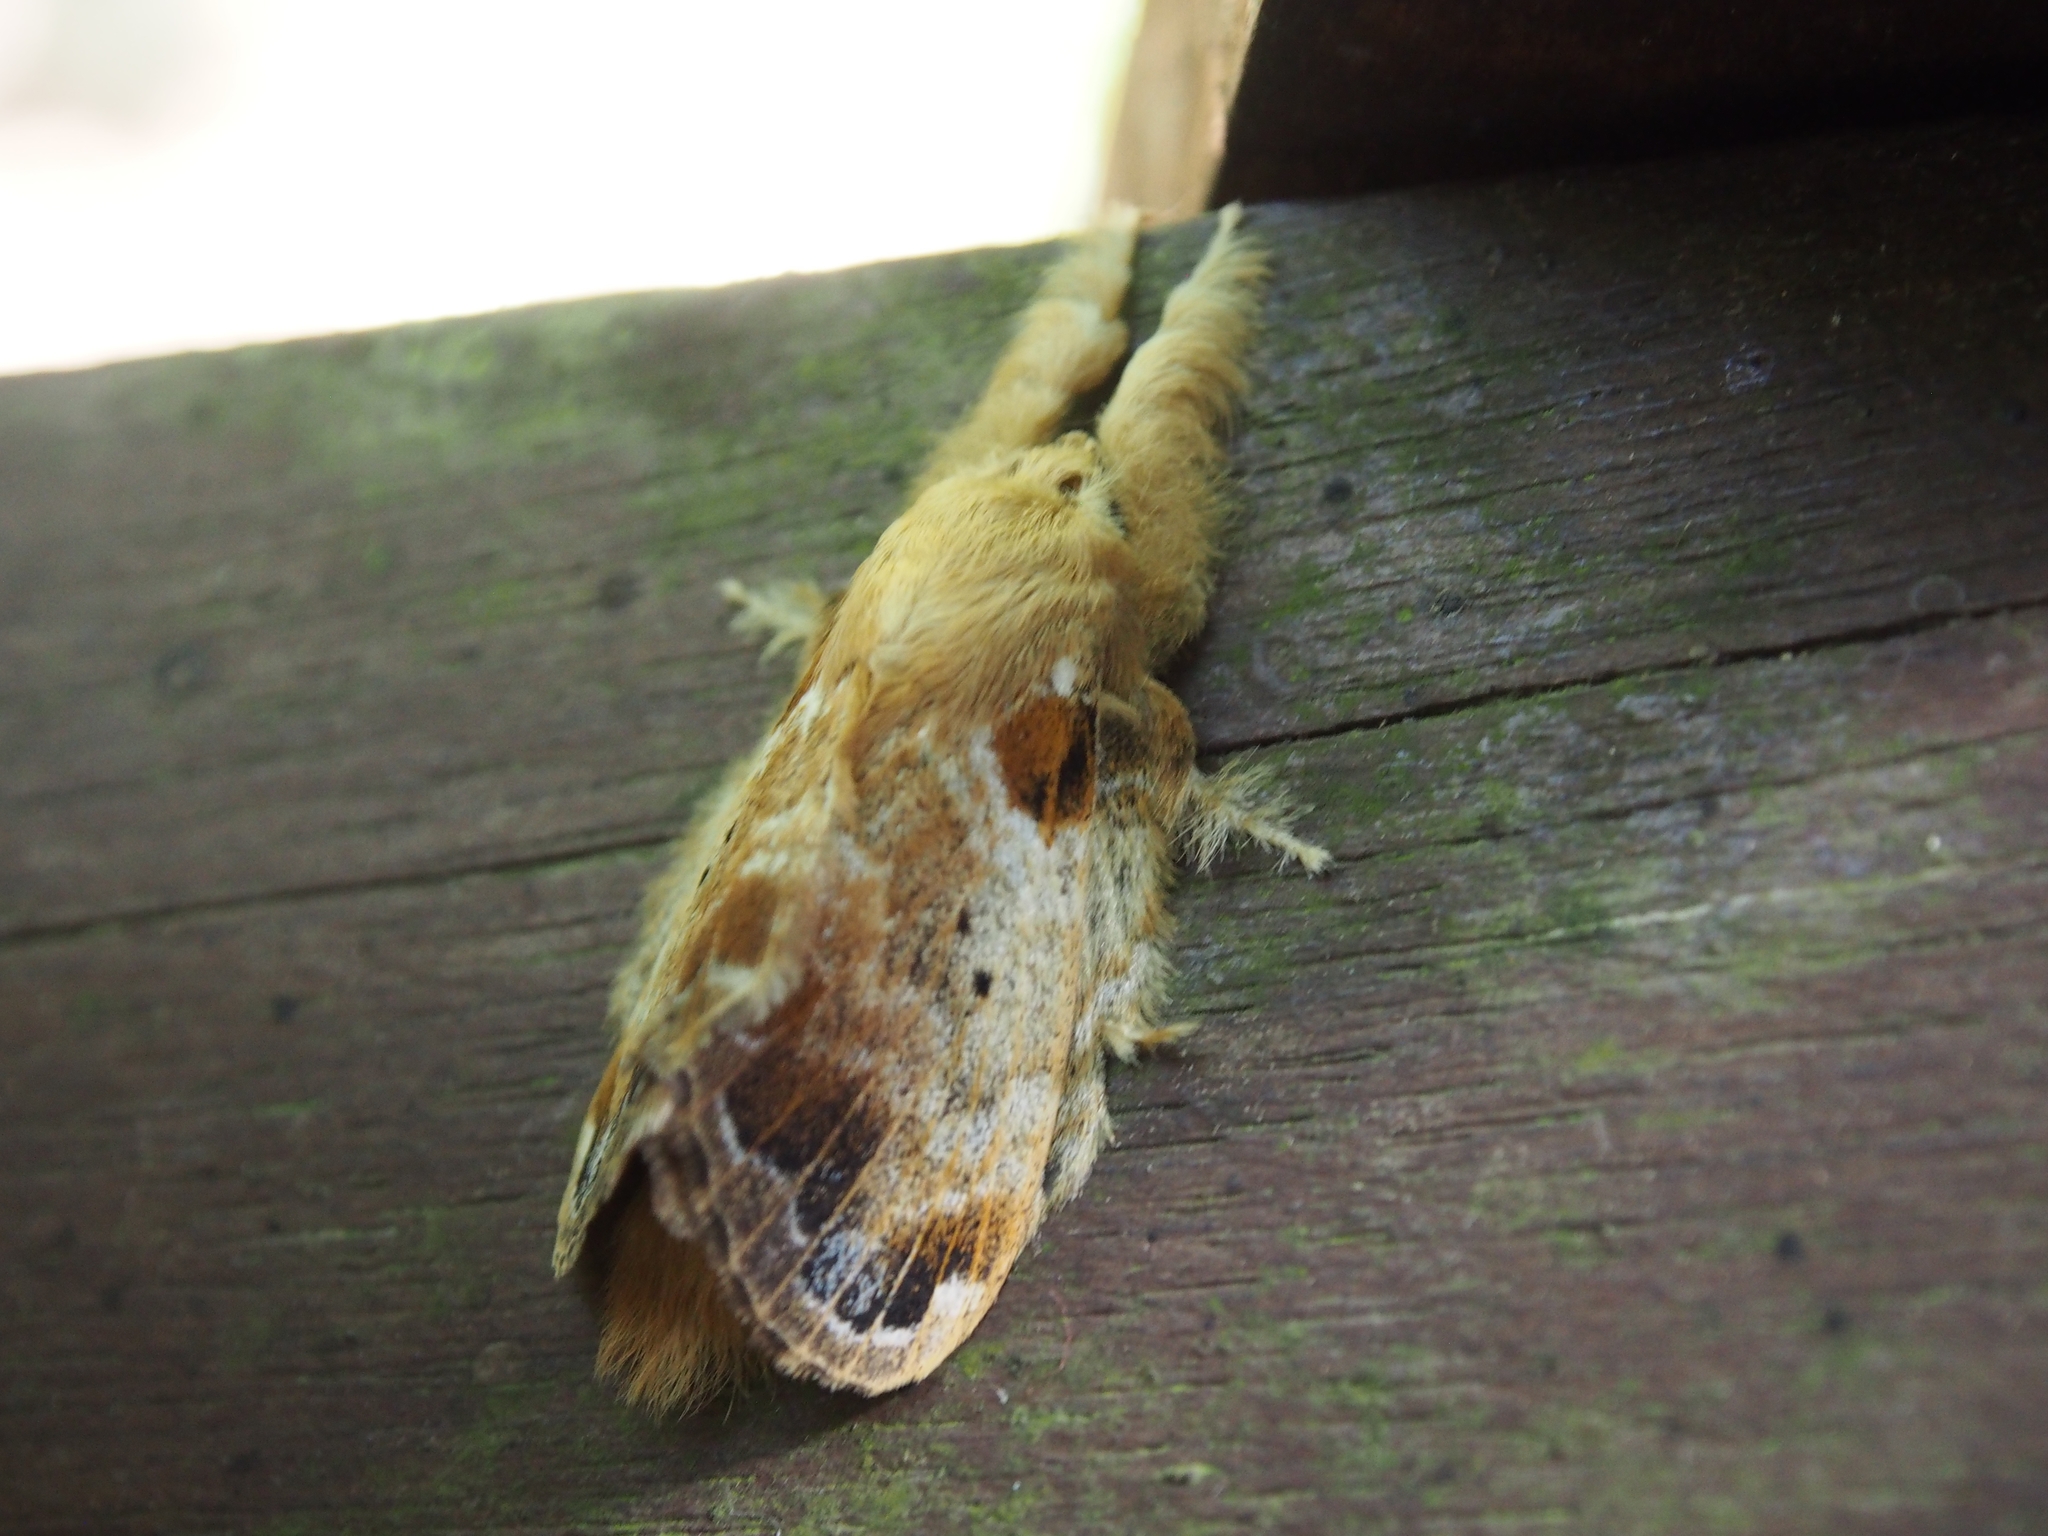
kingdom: Animalia
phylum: Arthropoda
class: Insecta
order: Lepidoptera
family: Lasiocampidae
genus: Euglyphis
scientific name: Euglyphis asapha
